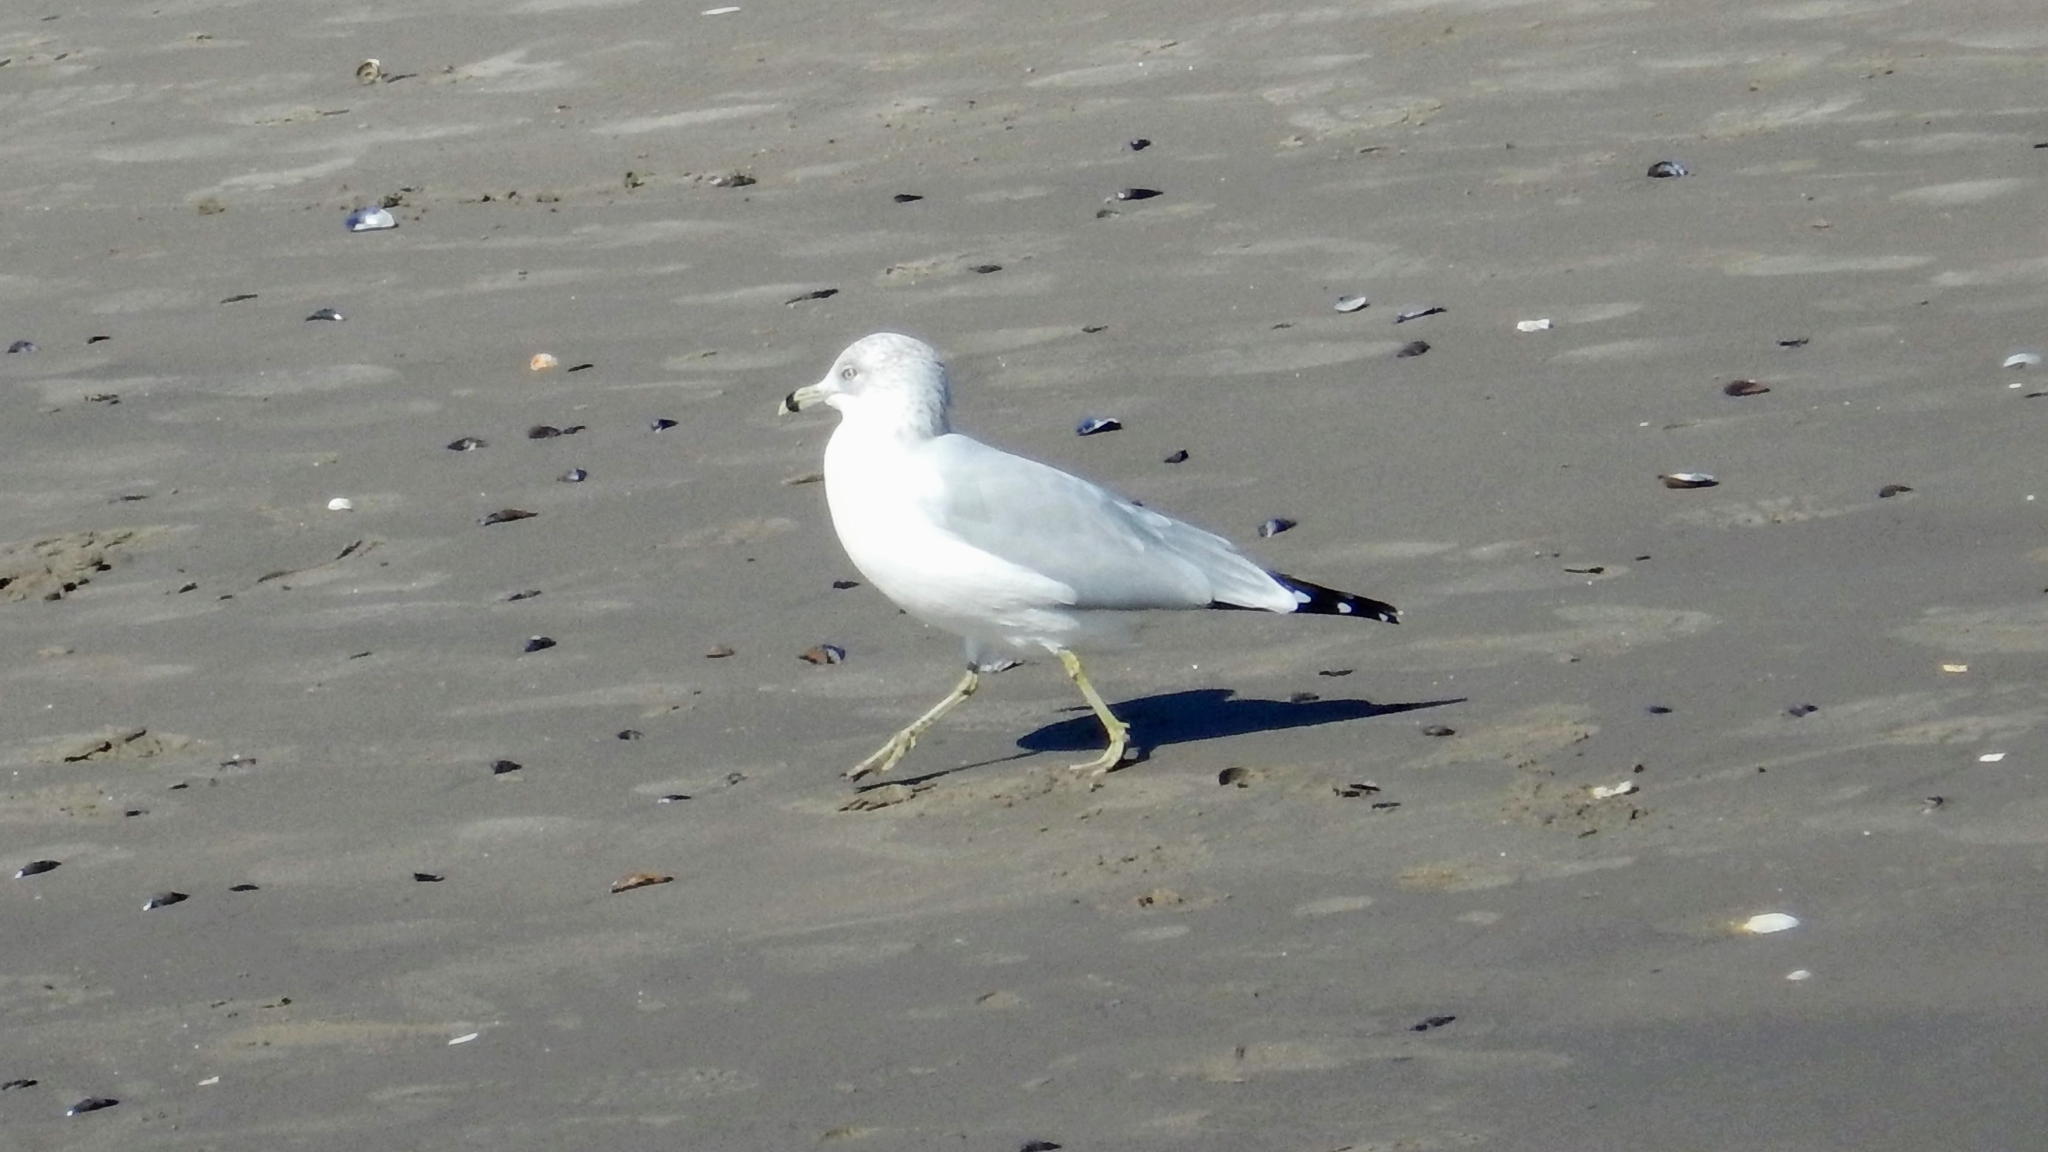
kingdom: Animalia
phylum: Chordata
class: Aves
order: Charadriiformes
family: Laridae
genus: Larus
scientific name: Larus delawarensis
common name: Ring-billed gull
